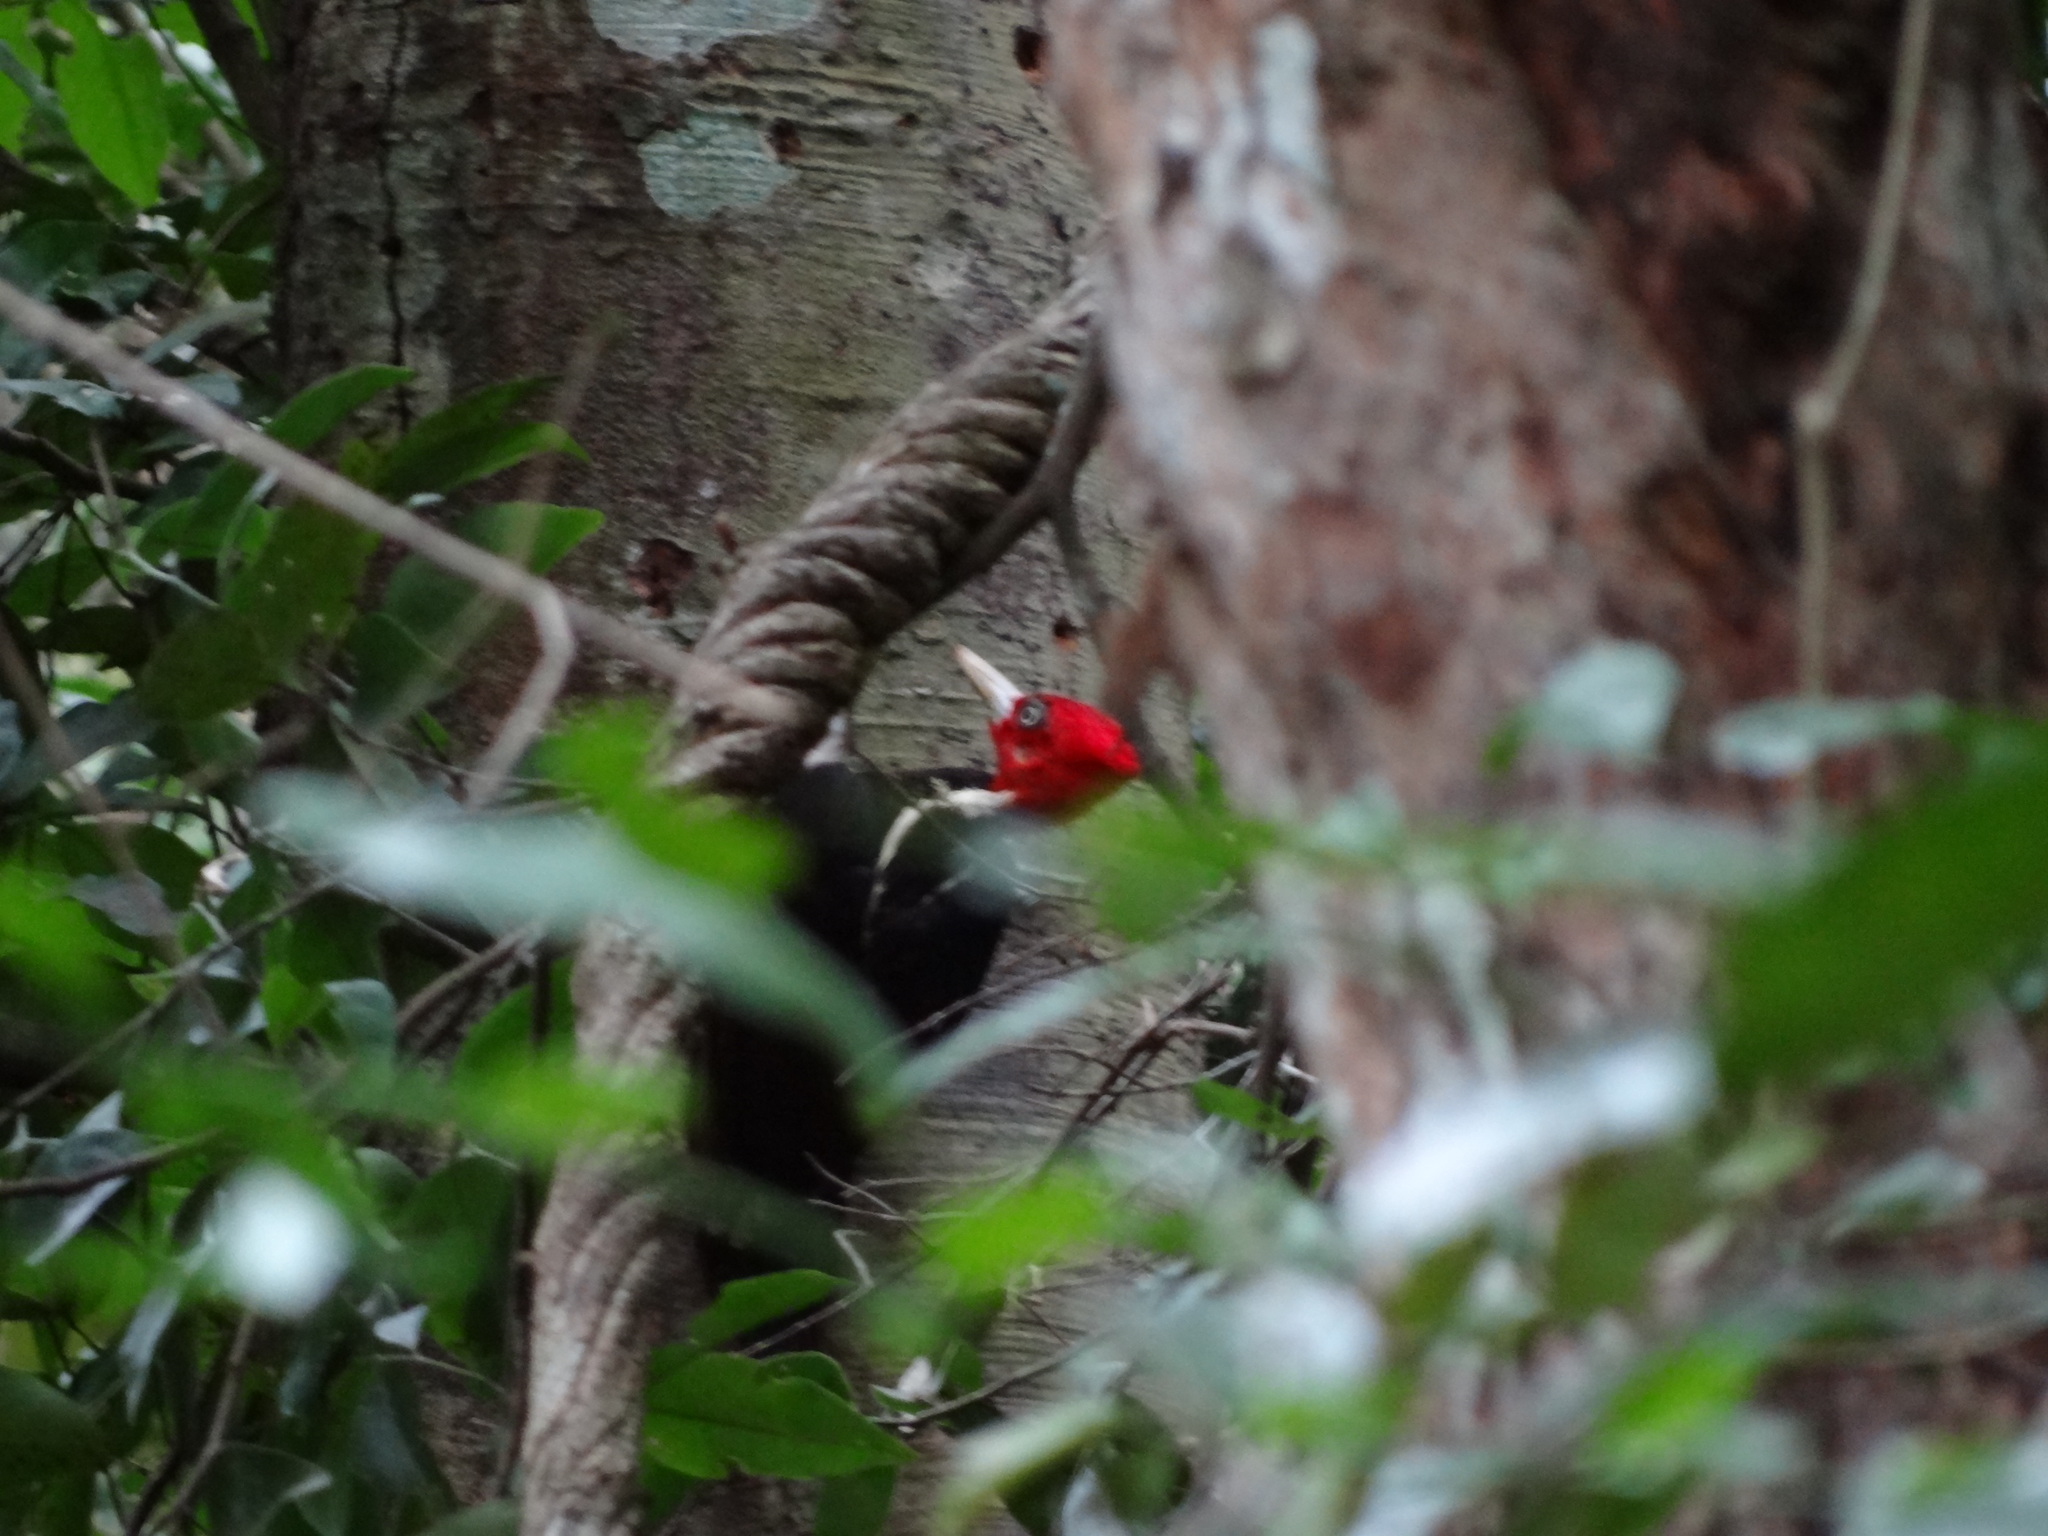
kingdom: Animalia
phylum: Chordata
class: Aves
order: Piciformes
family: Picidae
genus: Campephilus
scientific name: Campephilus guatemalensis
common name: Pale-billed woodpecker
